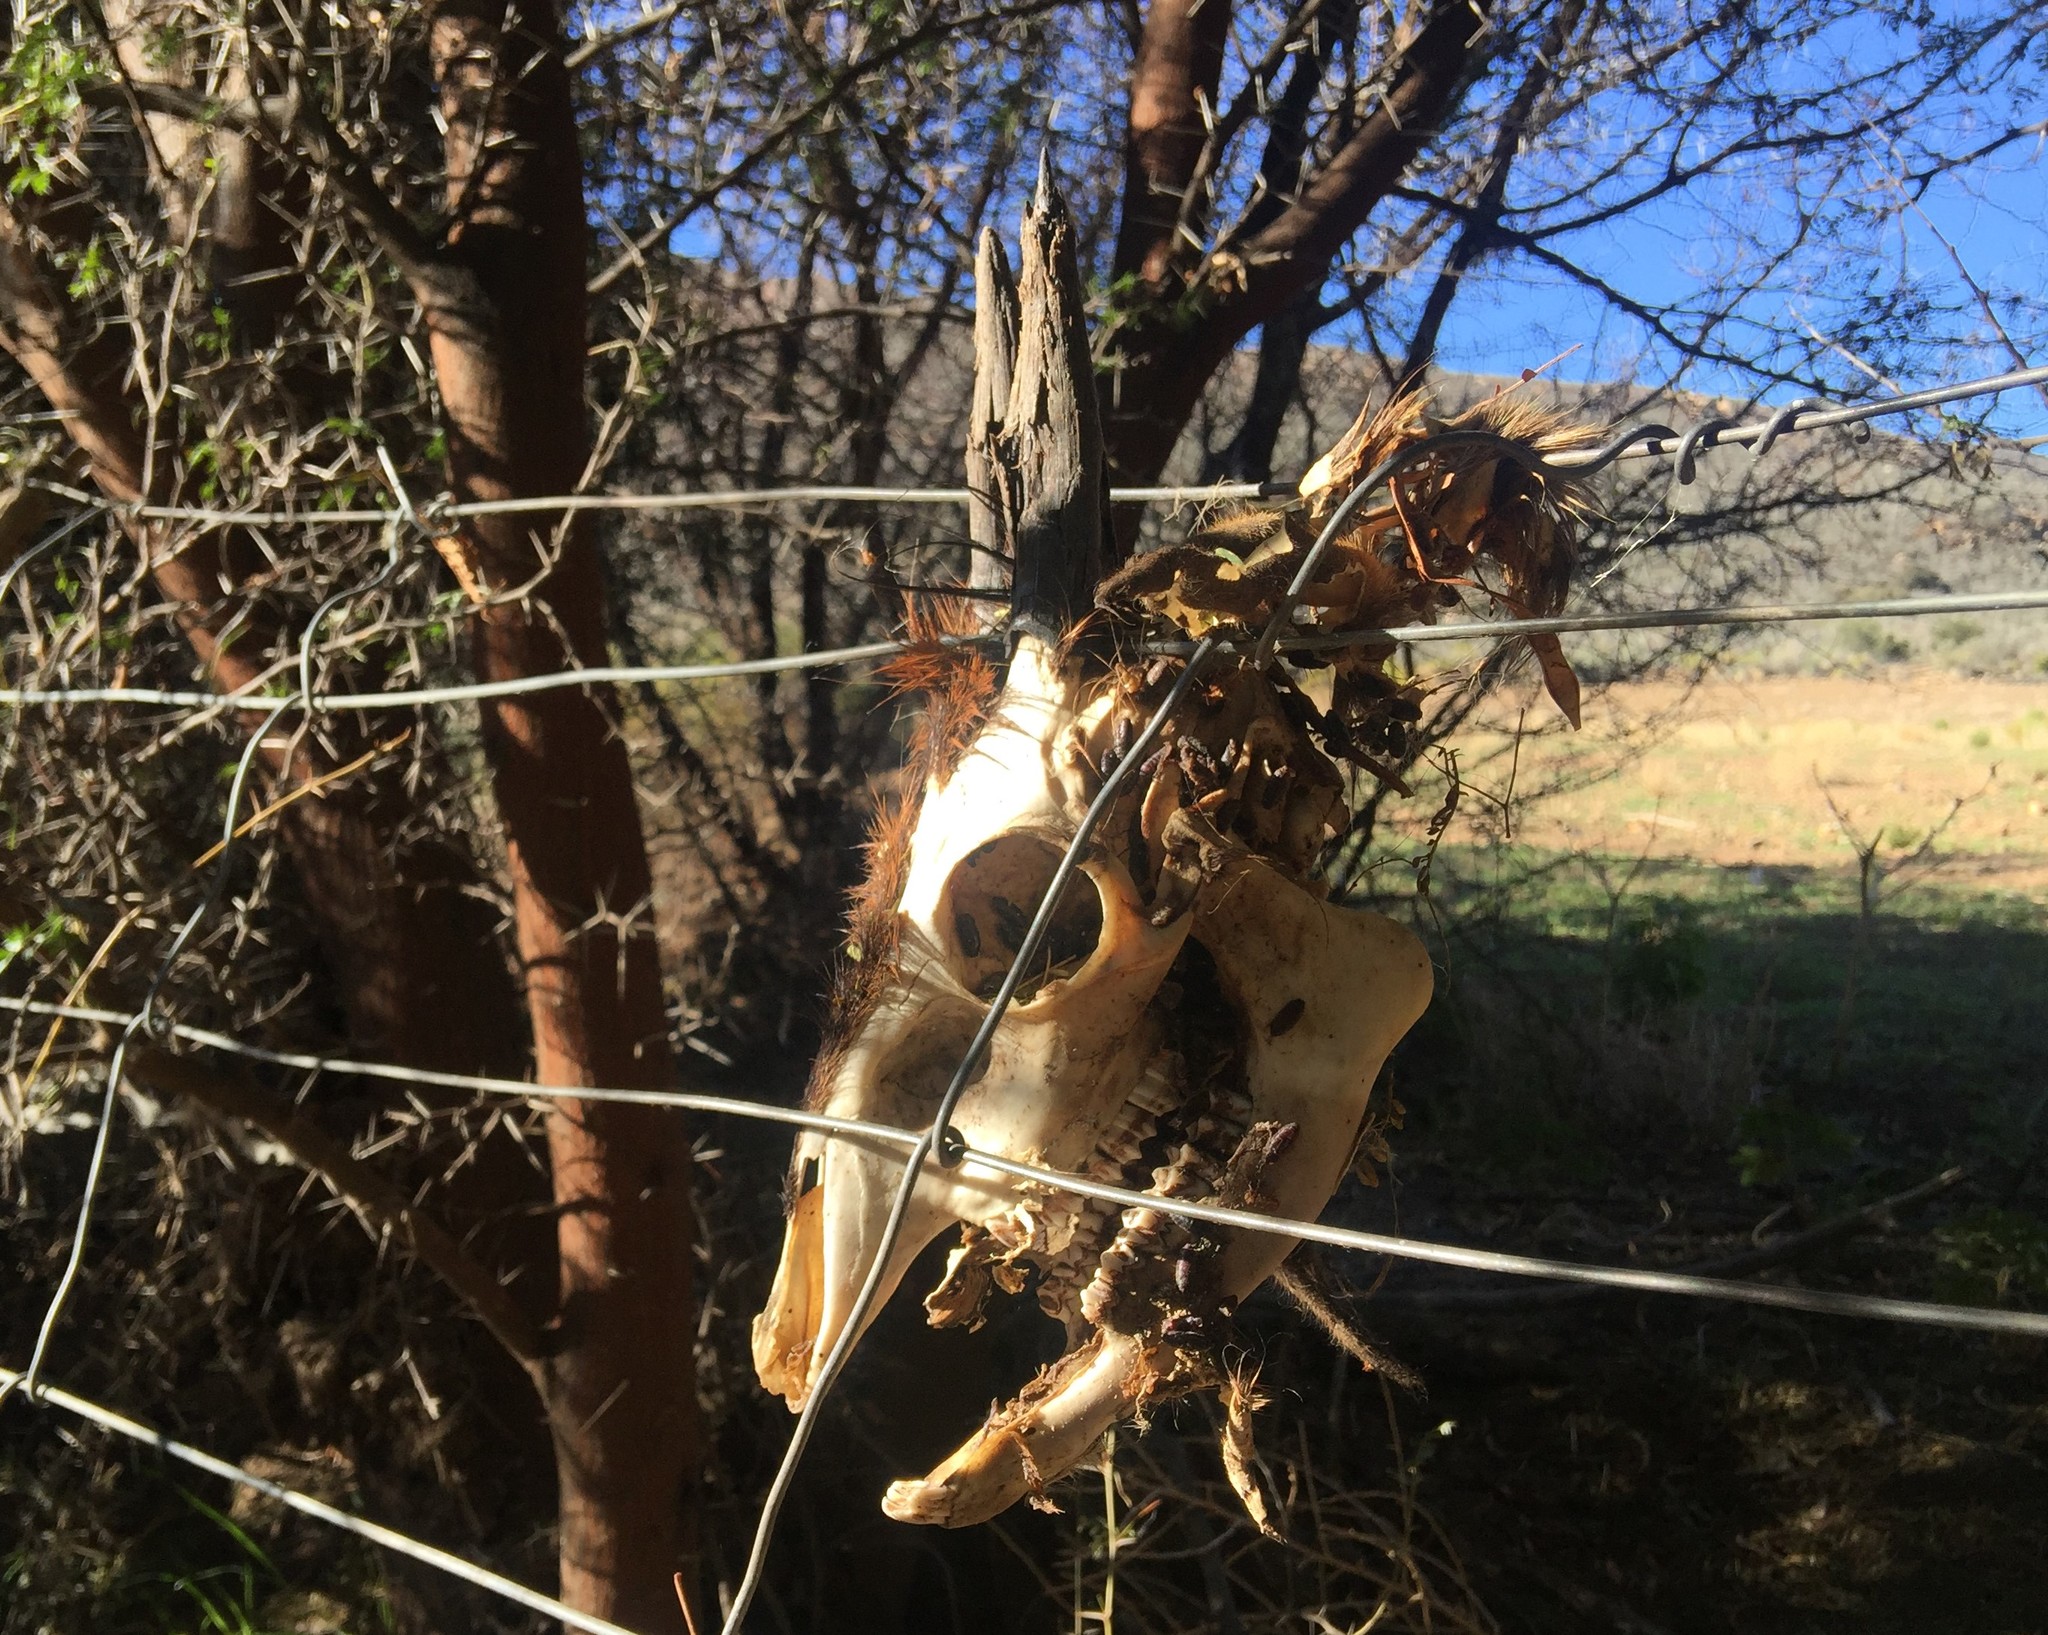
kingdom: Animalia
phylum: Chordata
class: Mammalia
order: Artiodactyla
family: Bovidae
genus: Sylvicapra
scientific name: Sylvicapra grimmia
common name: Bush duiker
